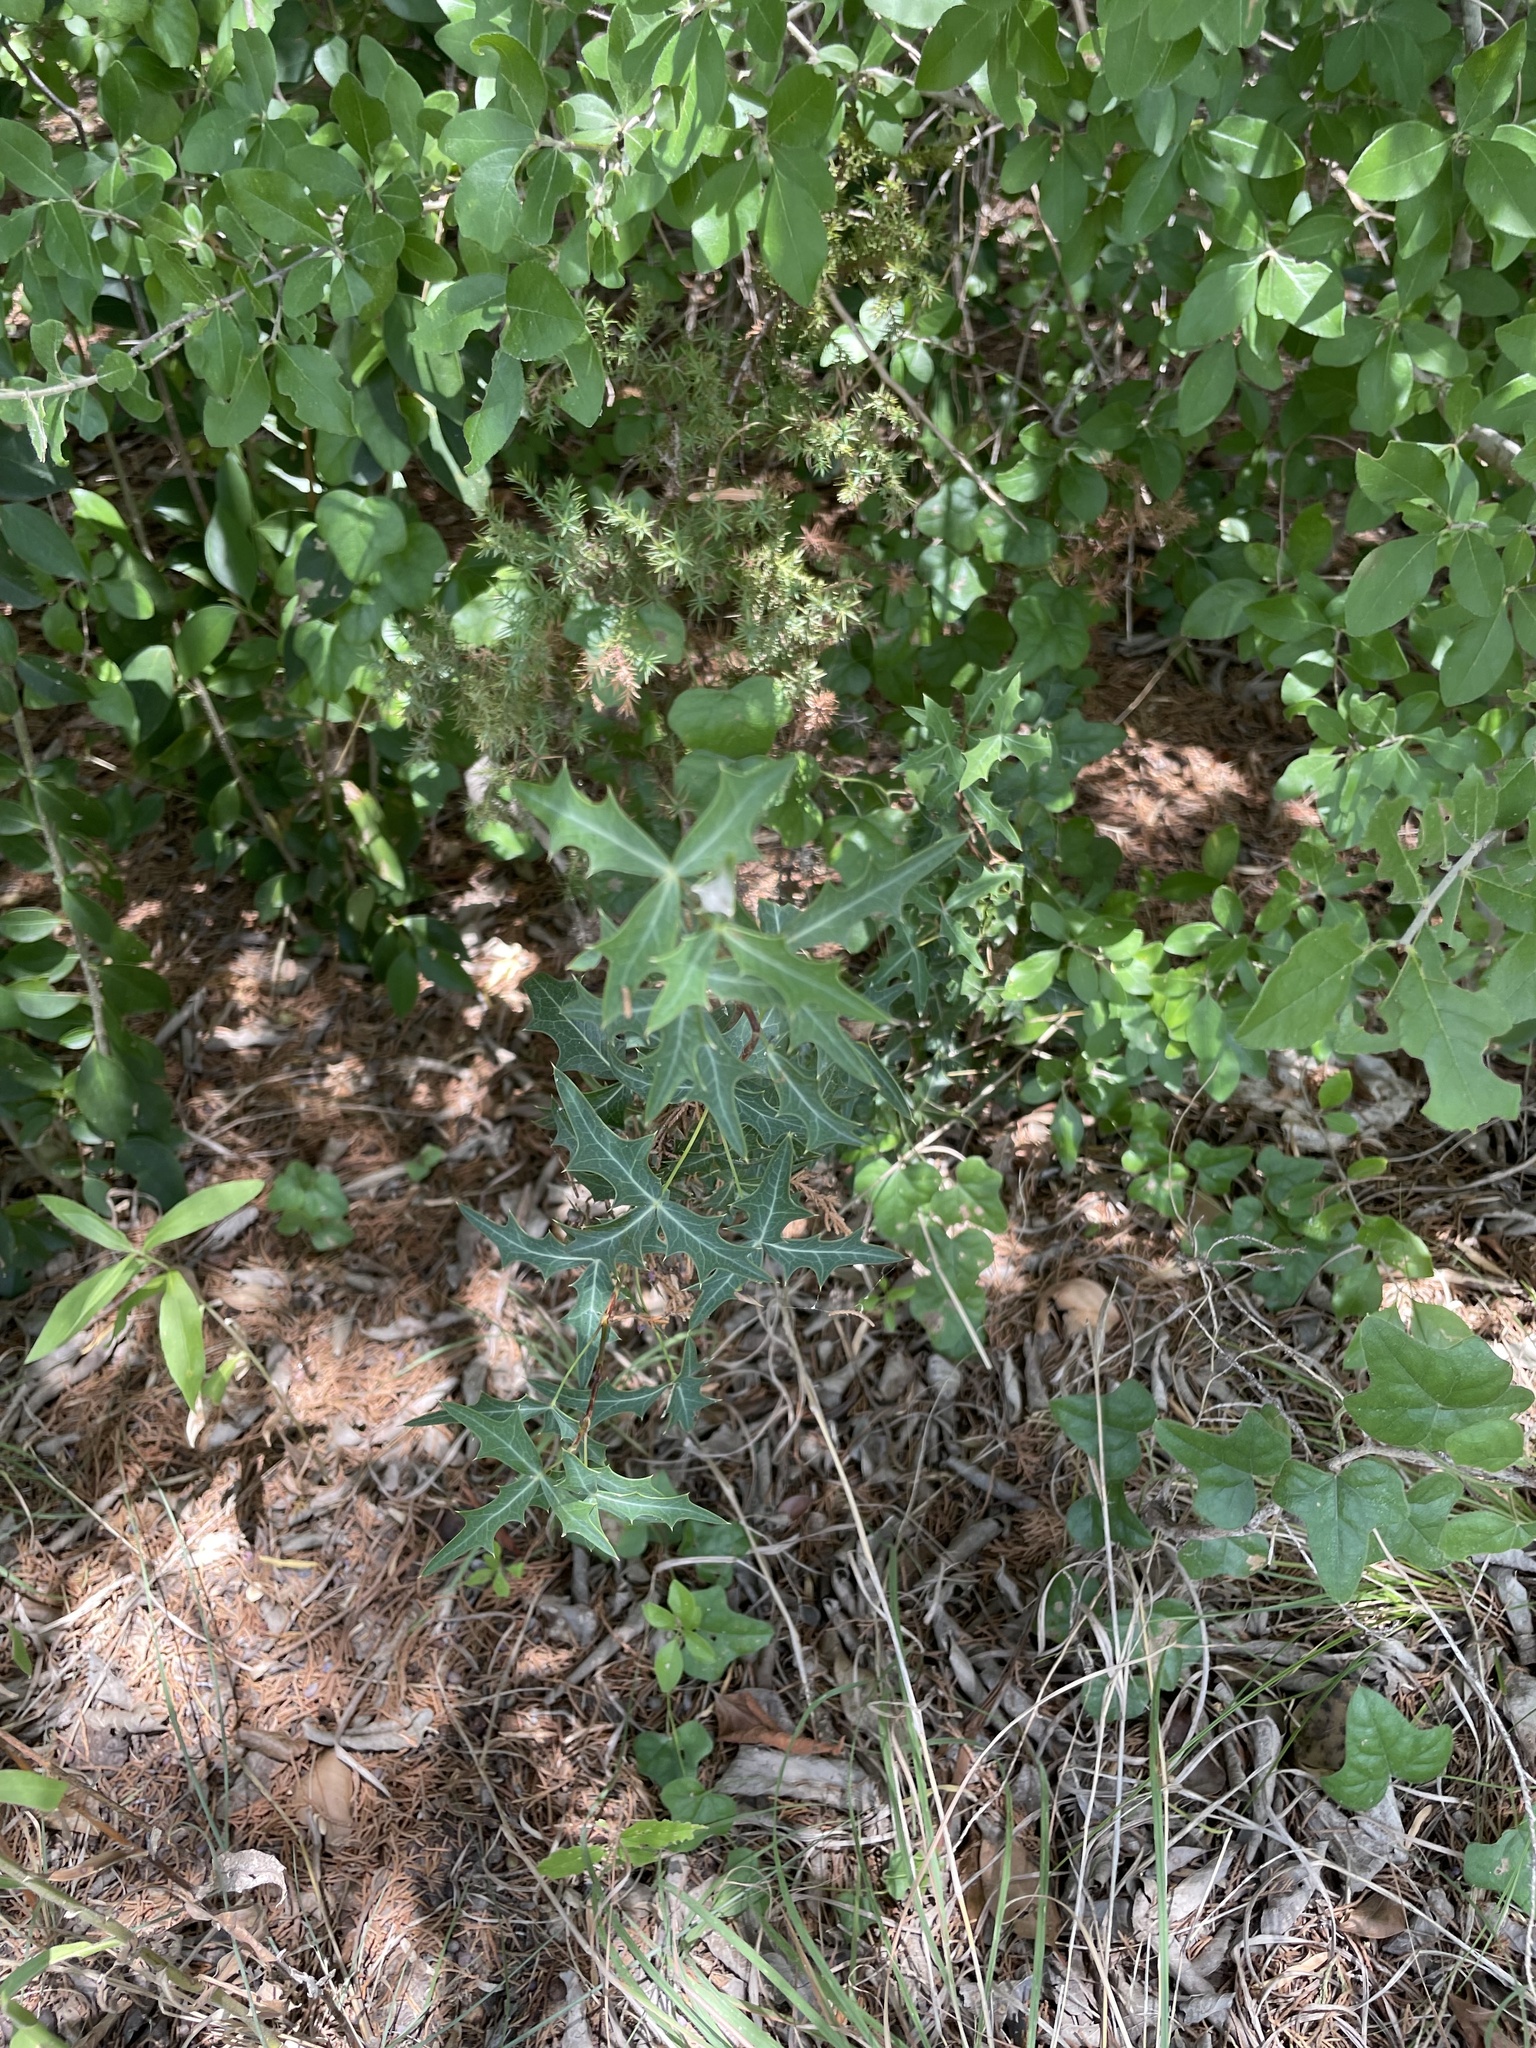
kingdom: Plantae
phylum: Tracheophyta
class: Magnoliopsida
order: Ranunculales
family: Berberidaceae
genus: Alloberberis
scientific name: Alloberberis trifoliolata
